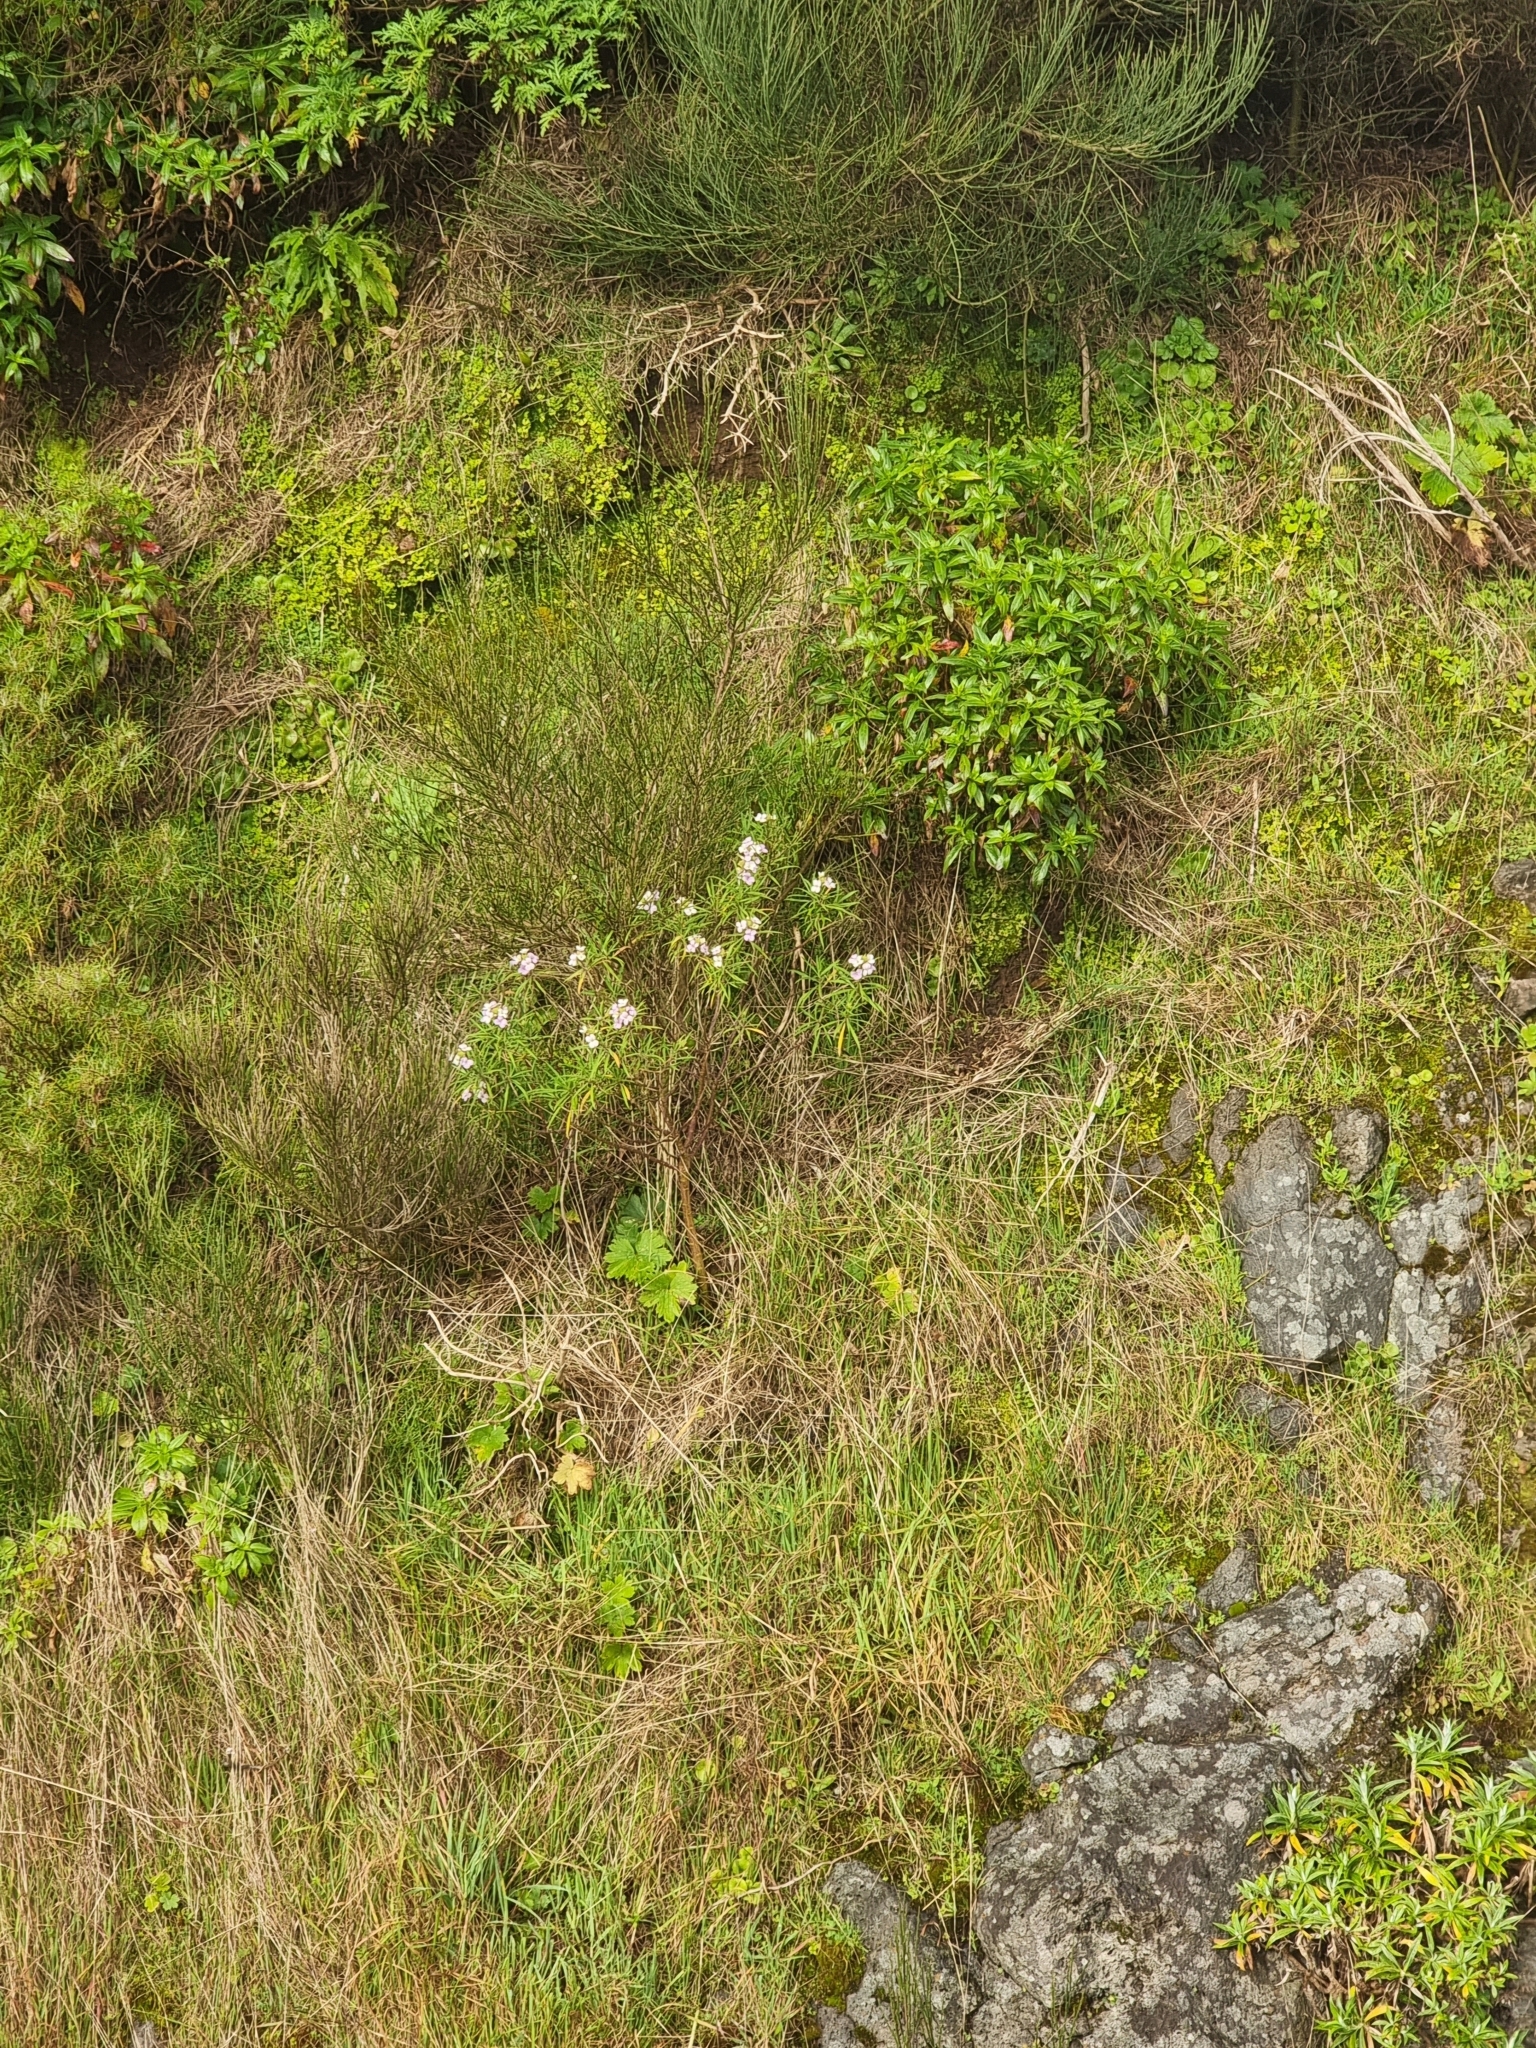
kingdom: Plantae
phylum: Tracheophyta
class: Magnoliopsida
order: Brassicales
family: Brassicaceae
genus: Erysimum
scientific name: Erysimum bicolor
